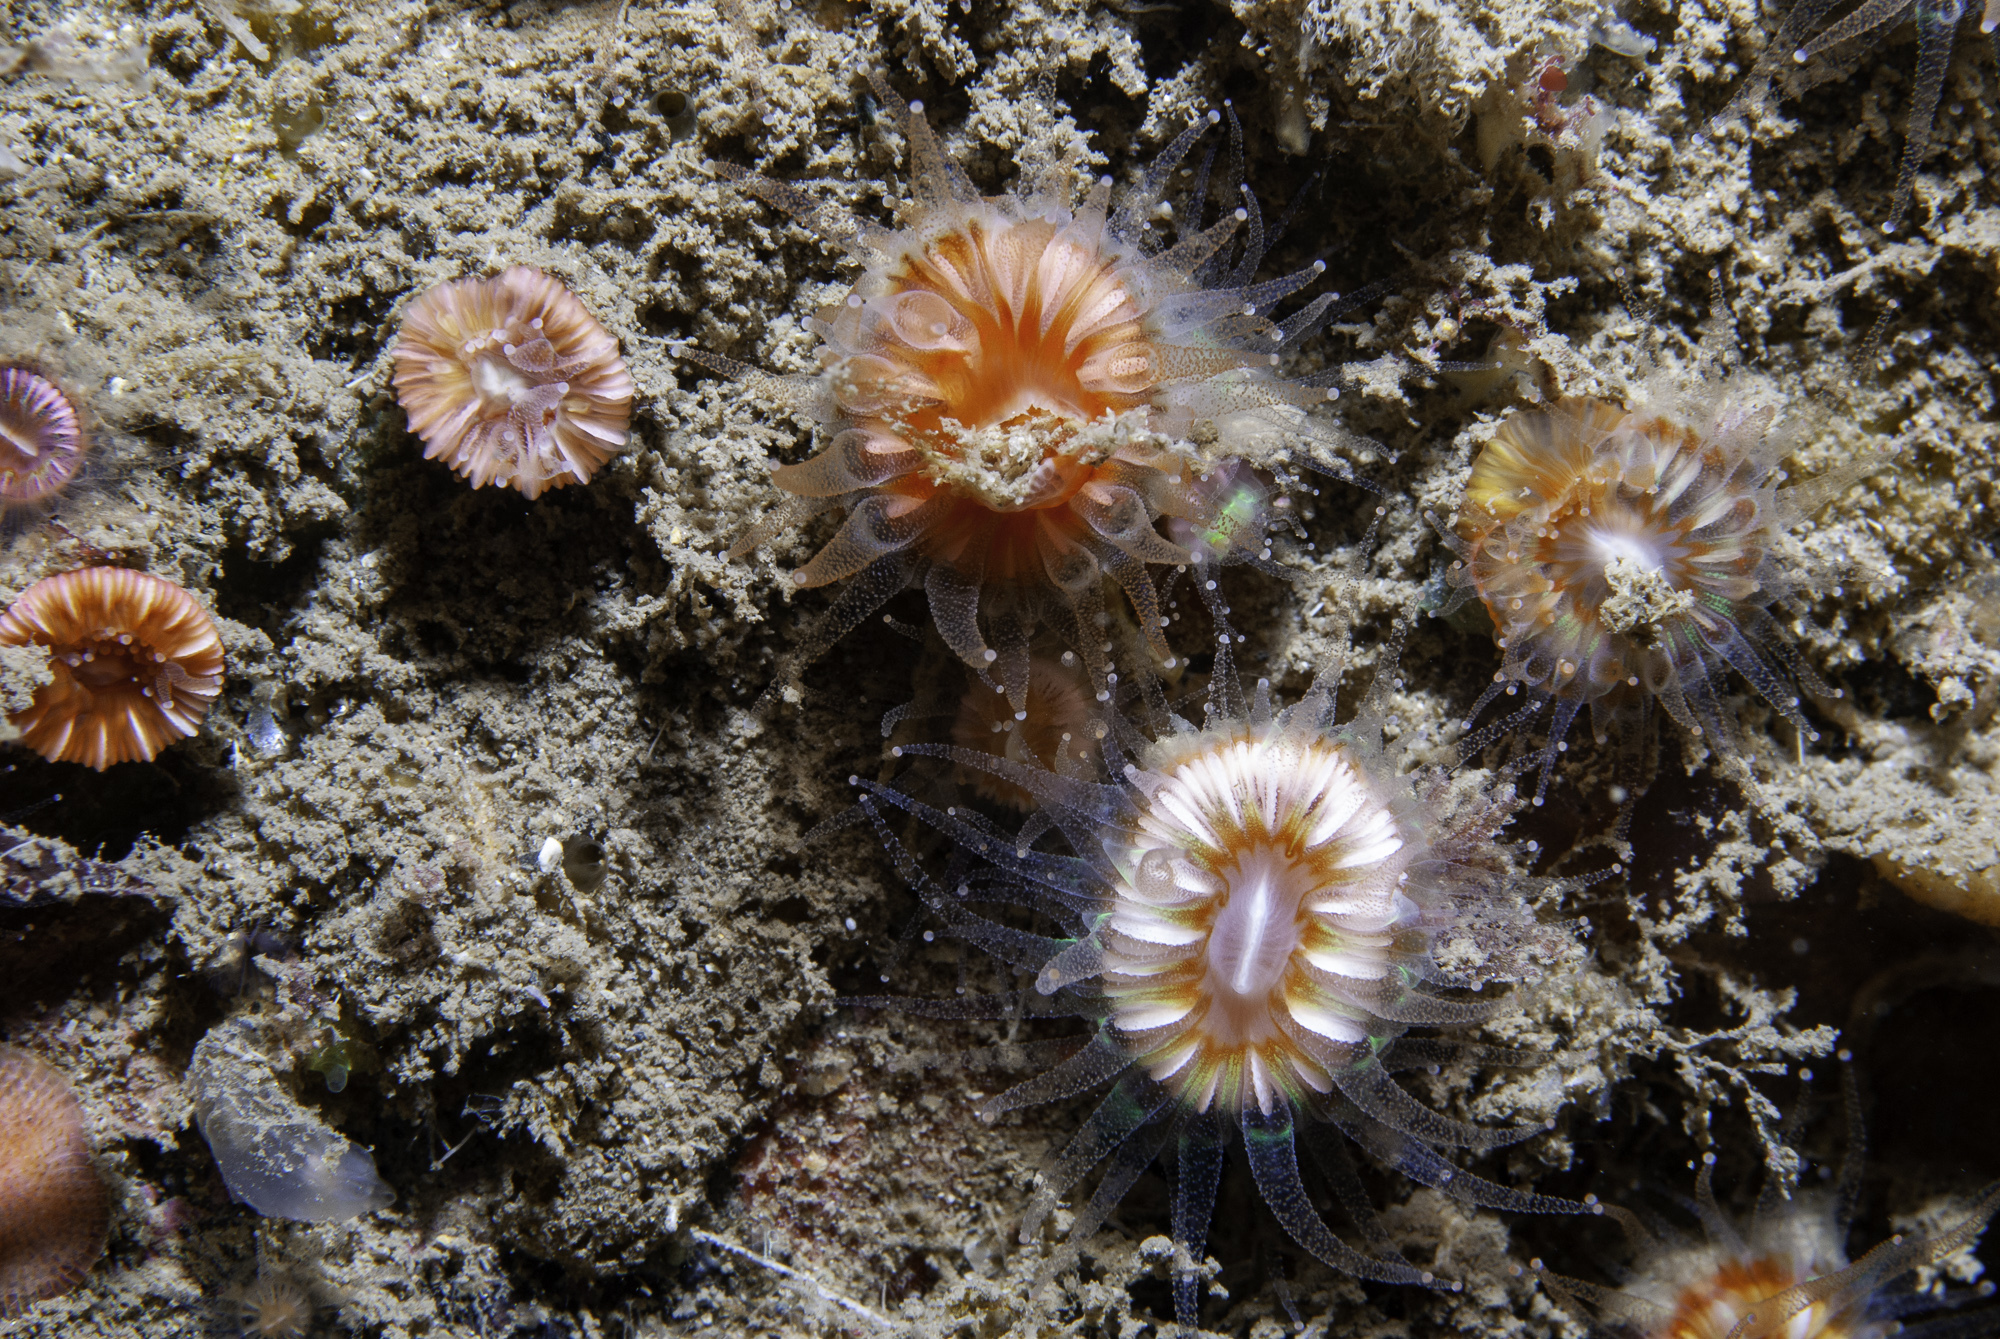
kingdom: Animalia
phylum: Cnidaria
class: Anthozoa
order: Scleractinia
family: Caryophylliidae
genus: Caryophyllia
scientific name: Caryophyllia smithii
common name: Devonshire cup coral
